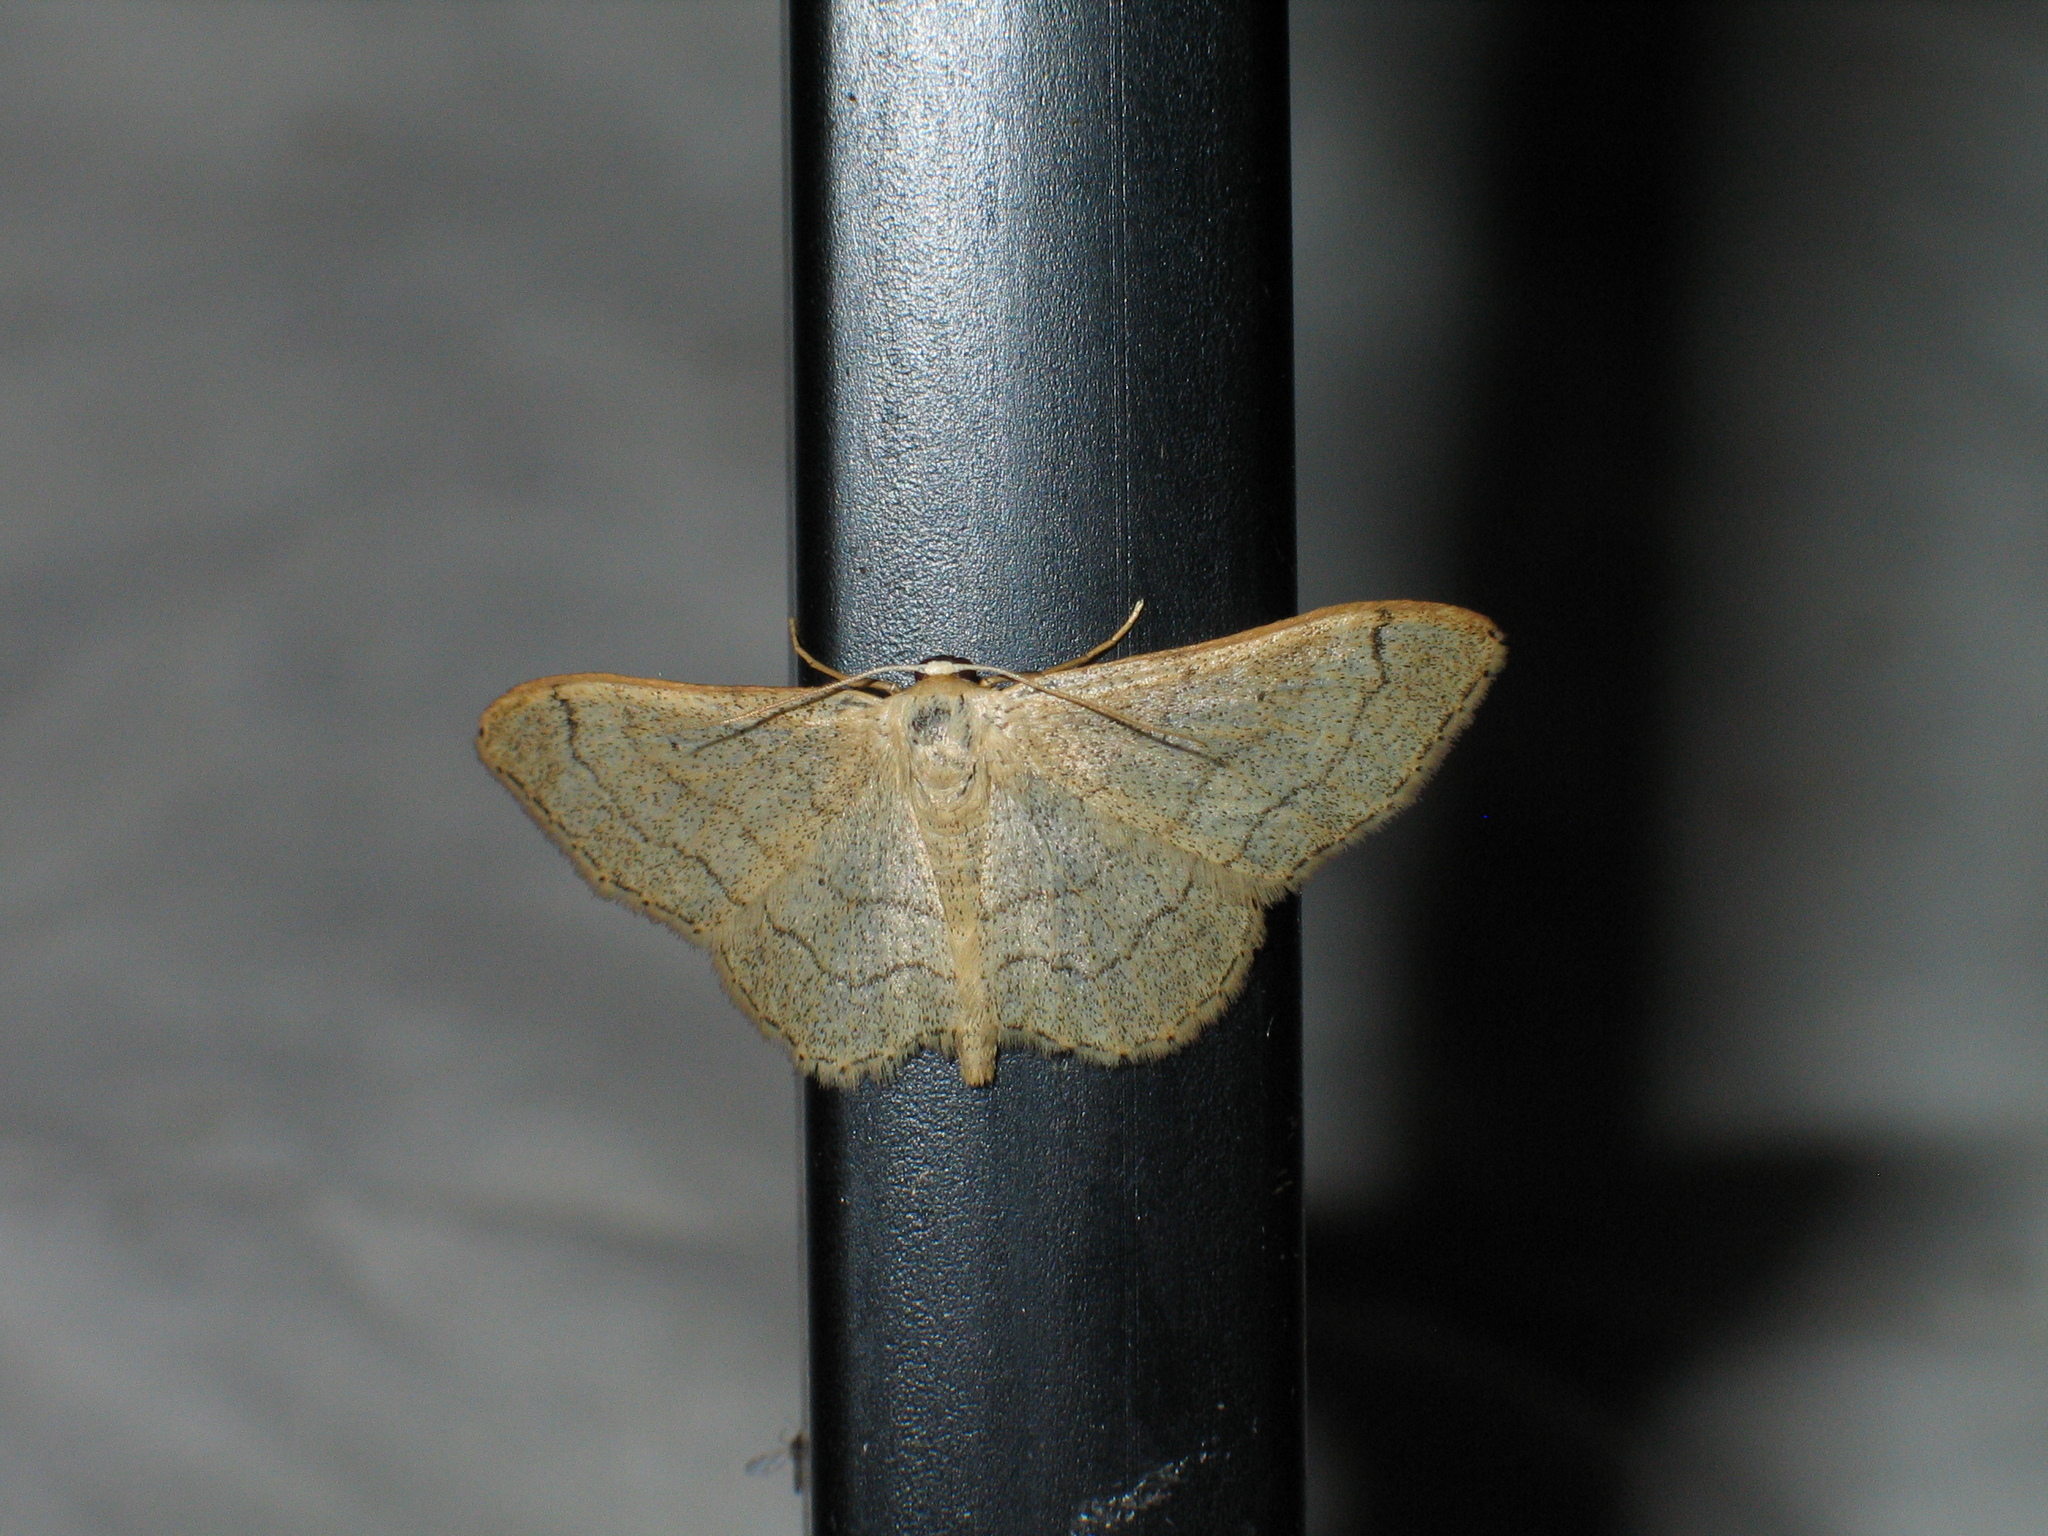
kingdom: Animalia
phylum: Arthropoda
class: Insecta
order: Lepidoptera
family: Geometridae
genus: Idaea
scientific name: Idaea aversata
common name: Riband wave
